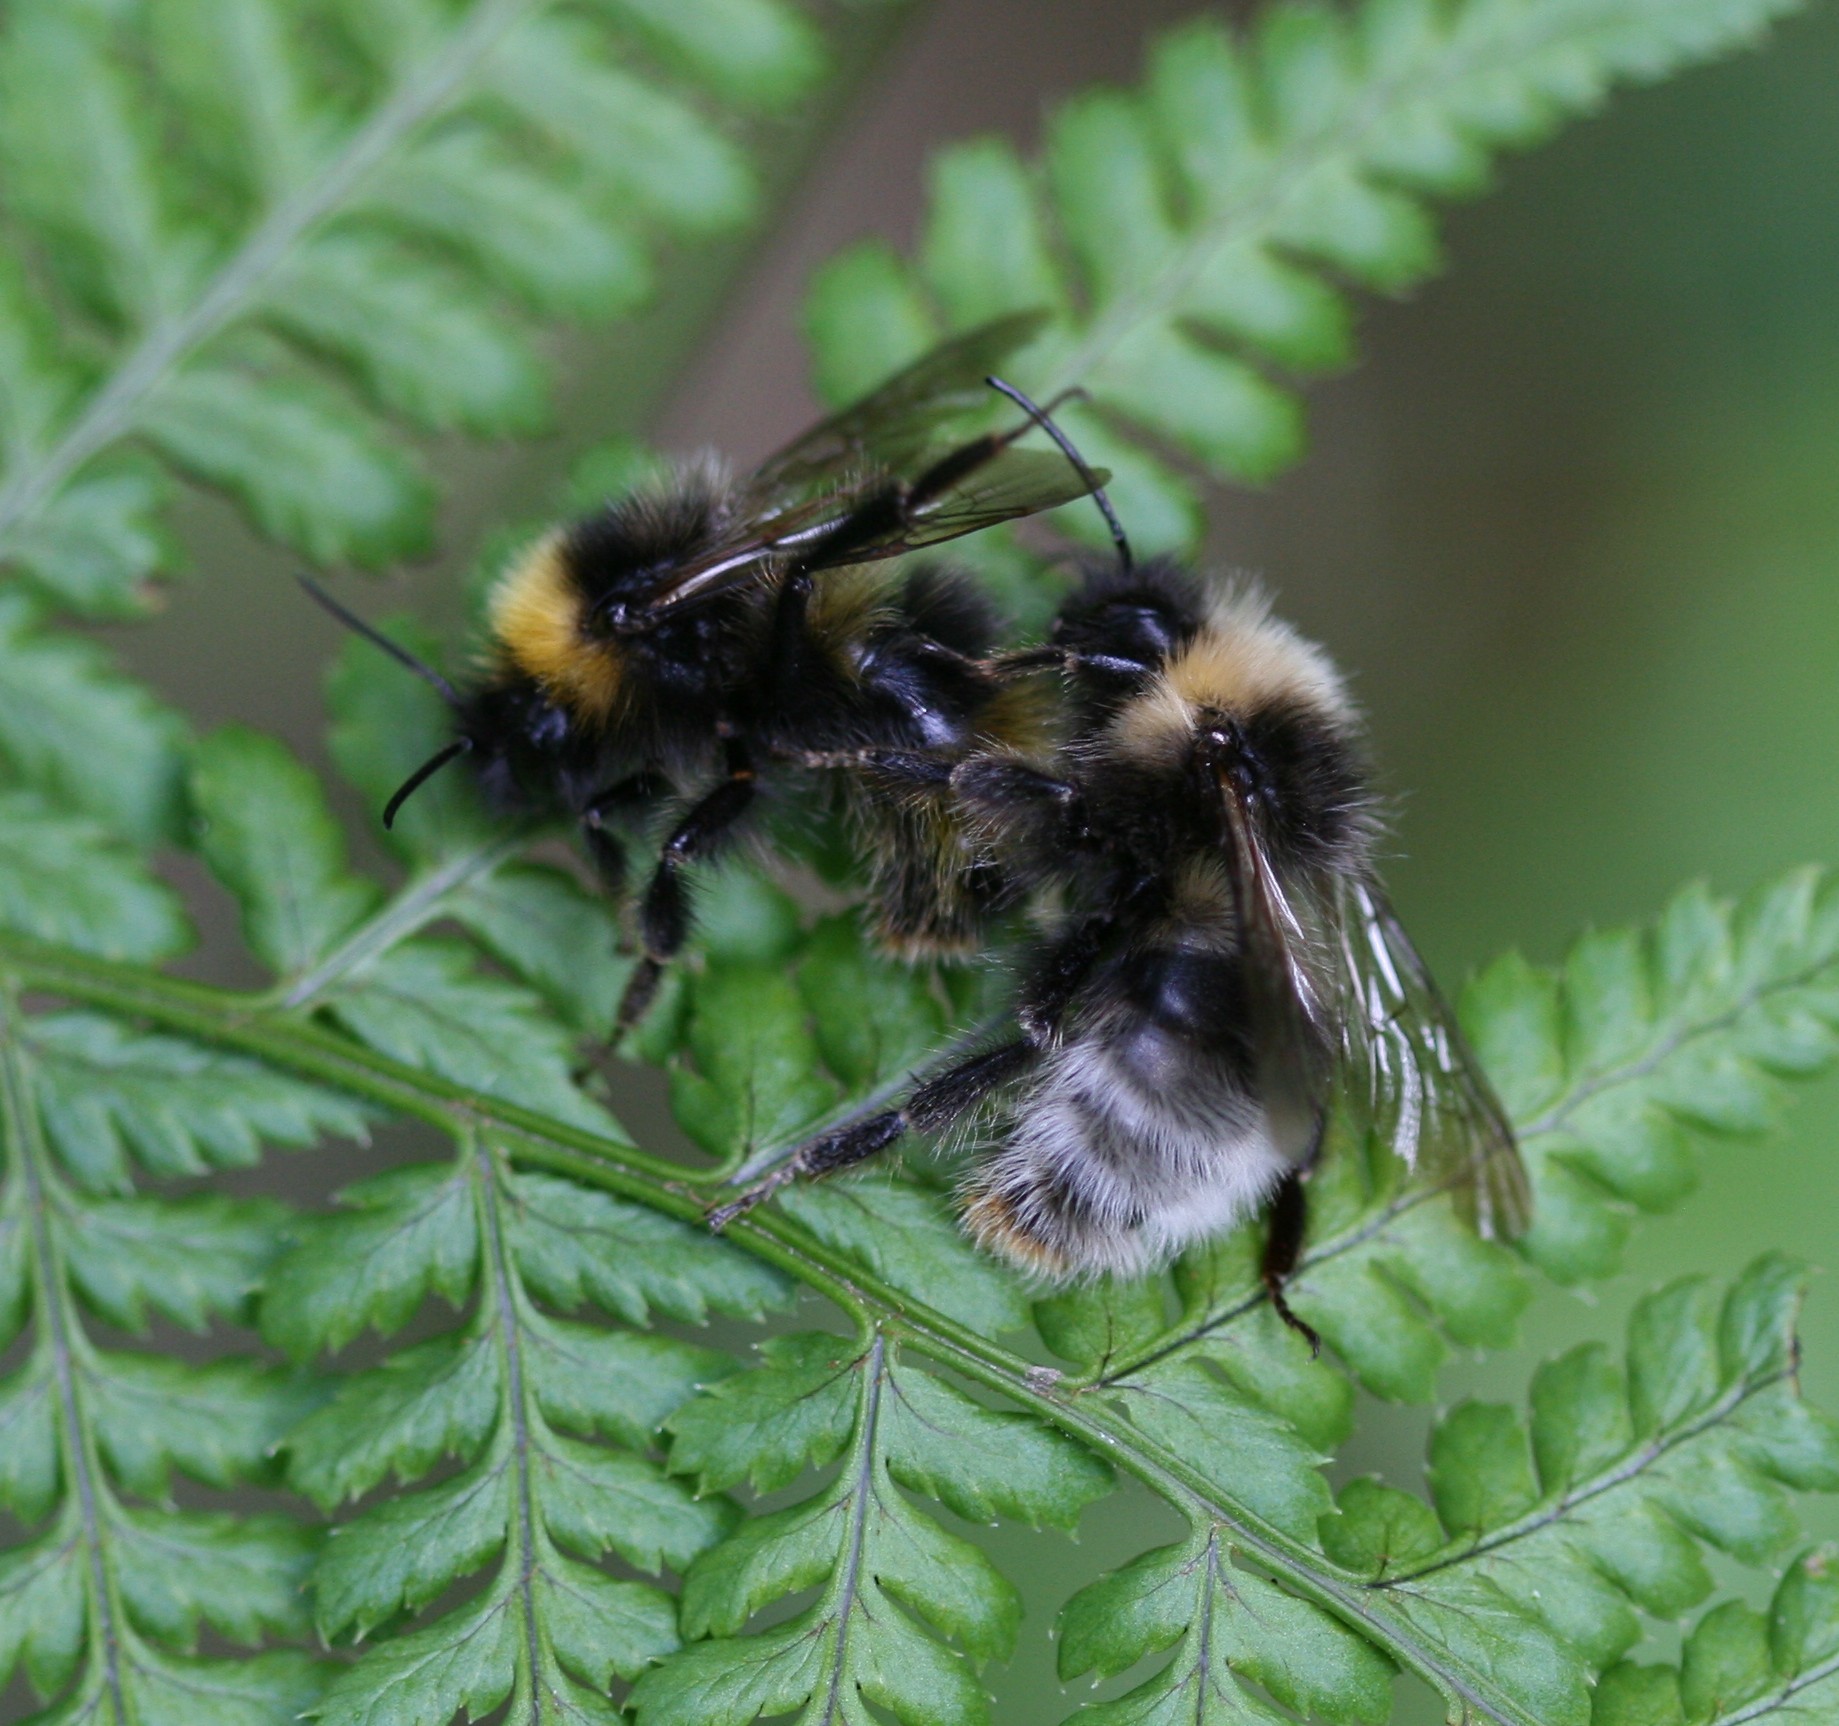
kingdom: Animalia
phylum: Arthropoda
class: Insecta
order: Hymenoptera
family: Apidae
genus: Bombus
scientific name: Bombus sylvestris
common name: Forest cuckoo bee
